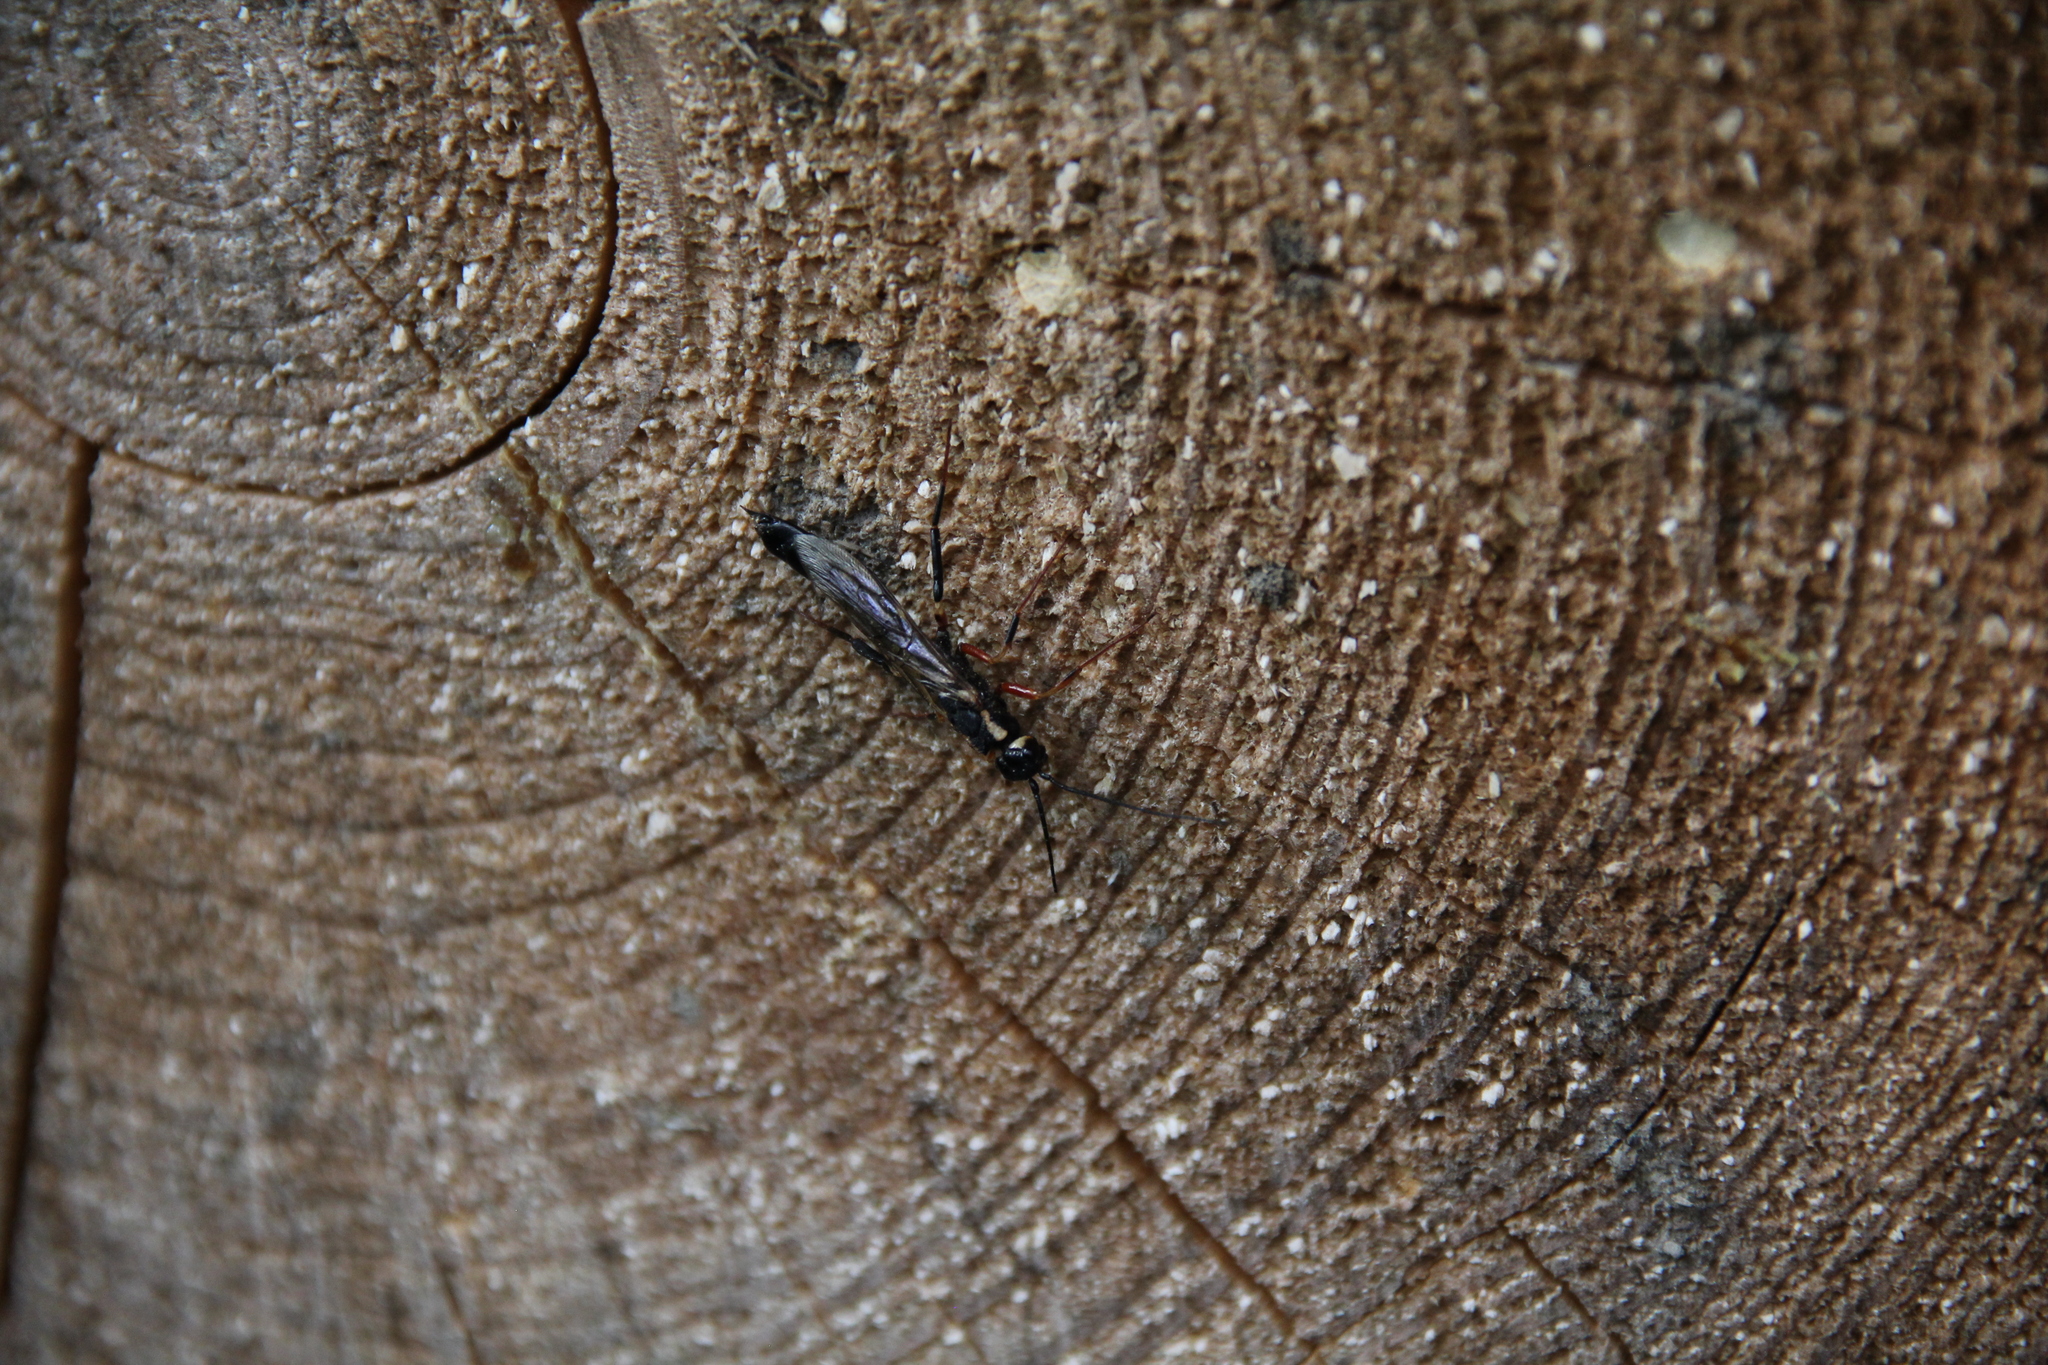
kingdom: Animalia
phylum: Arthropoda
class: Insecta
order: Hymenoptera
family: Siricidae
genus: Xeris
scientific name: Xeris spectrum
